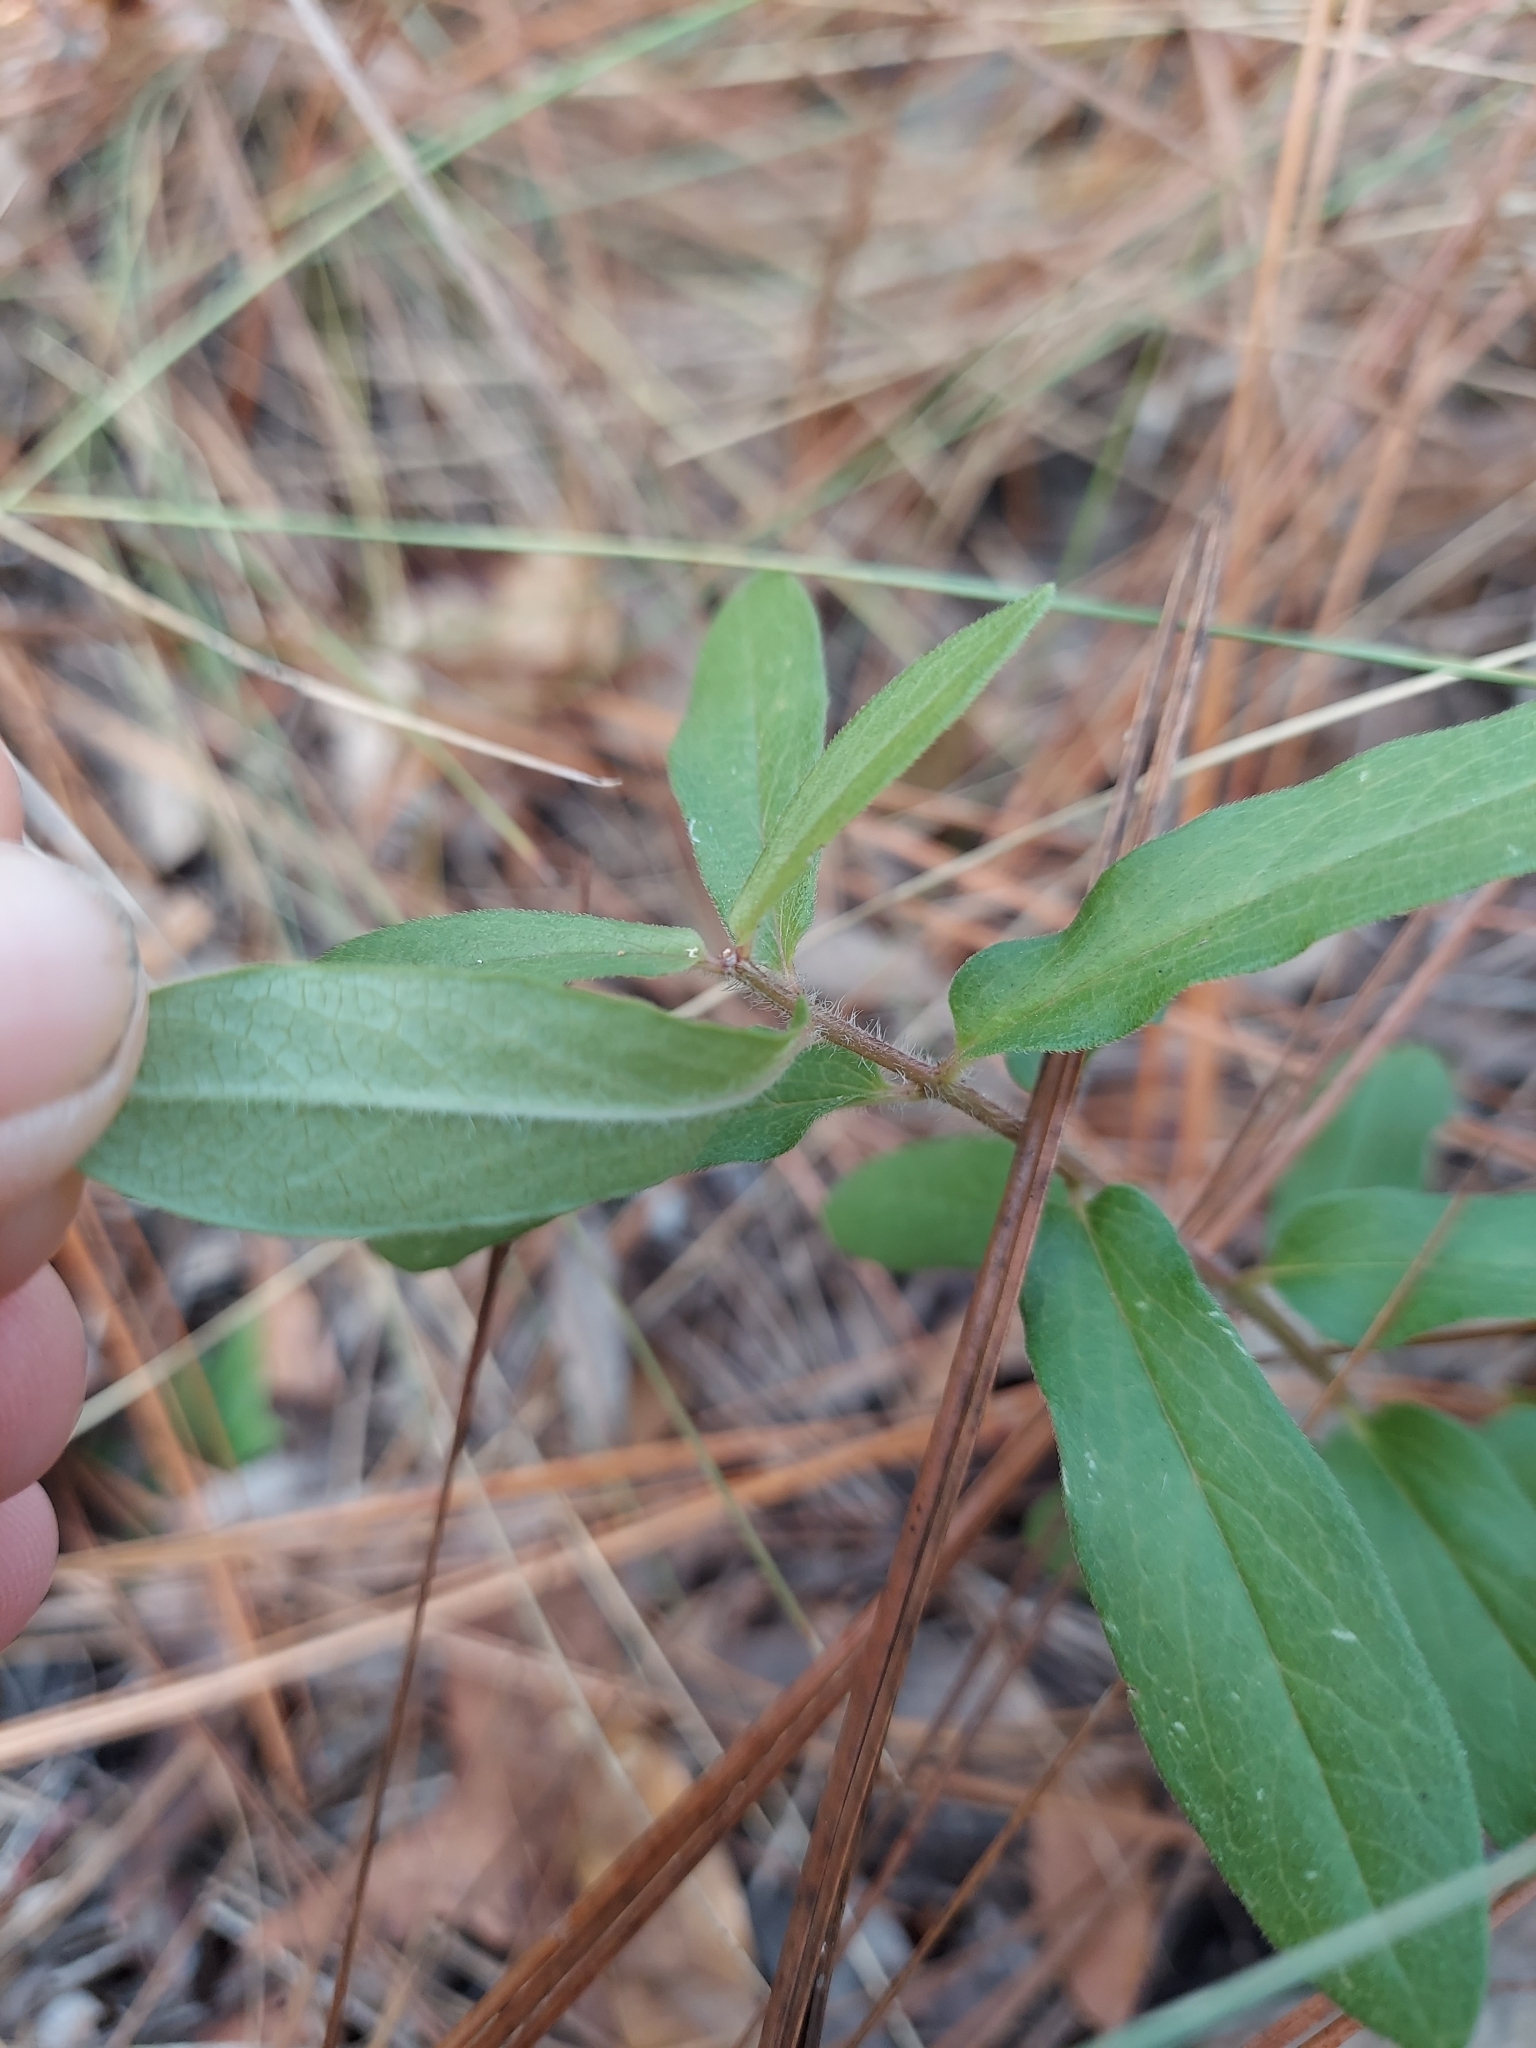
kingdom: Plantae
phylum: Tracheophyta
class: Magnoliopsida
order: Gentianales
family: Apocynaceae
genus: Asclepias
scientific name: Asclepias tuberosa
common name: Butterfly milkweed
